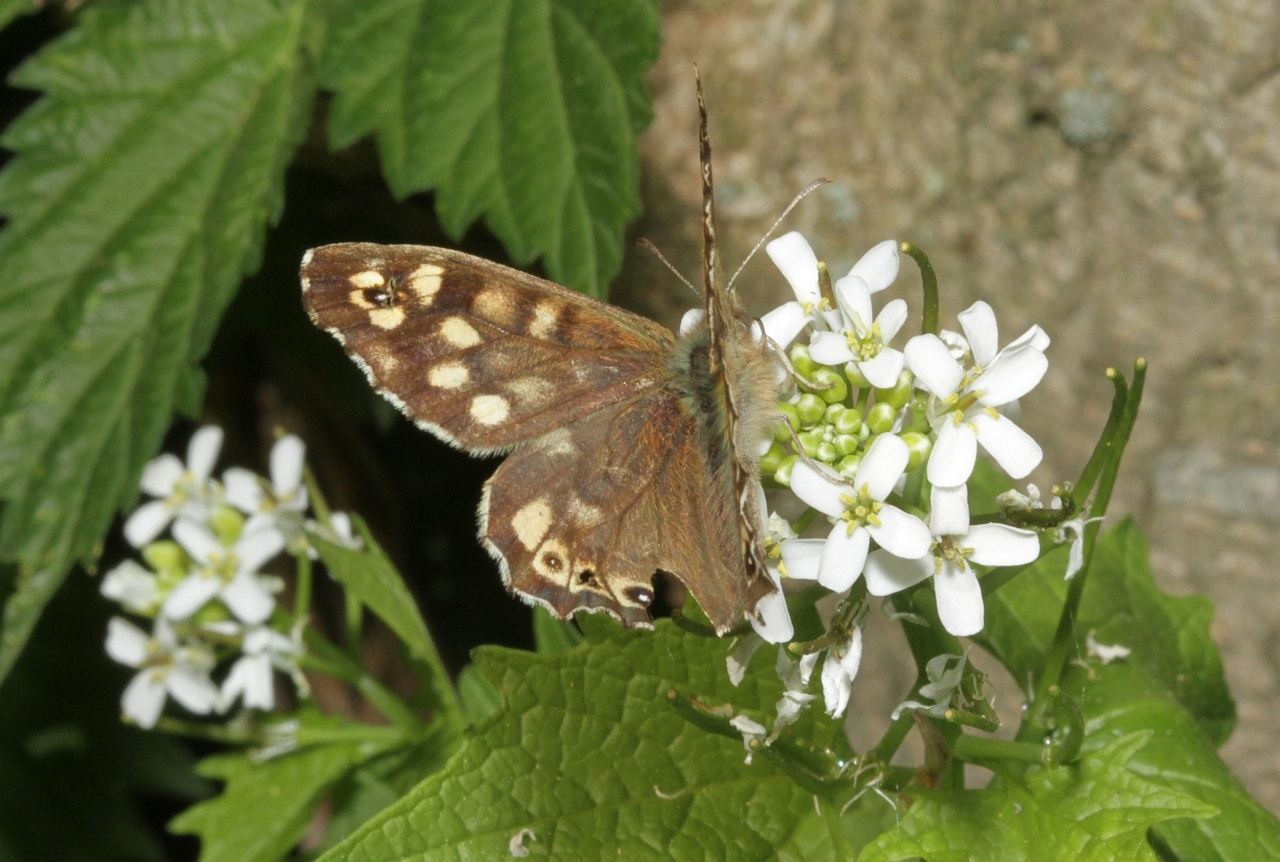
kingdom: Animalia
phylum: Arthropoda
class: Insecta
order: Lepidoptera
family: Nymphalidae
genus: Pararge
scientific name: Pararge aegeria
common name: Speckled wood
